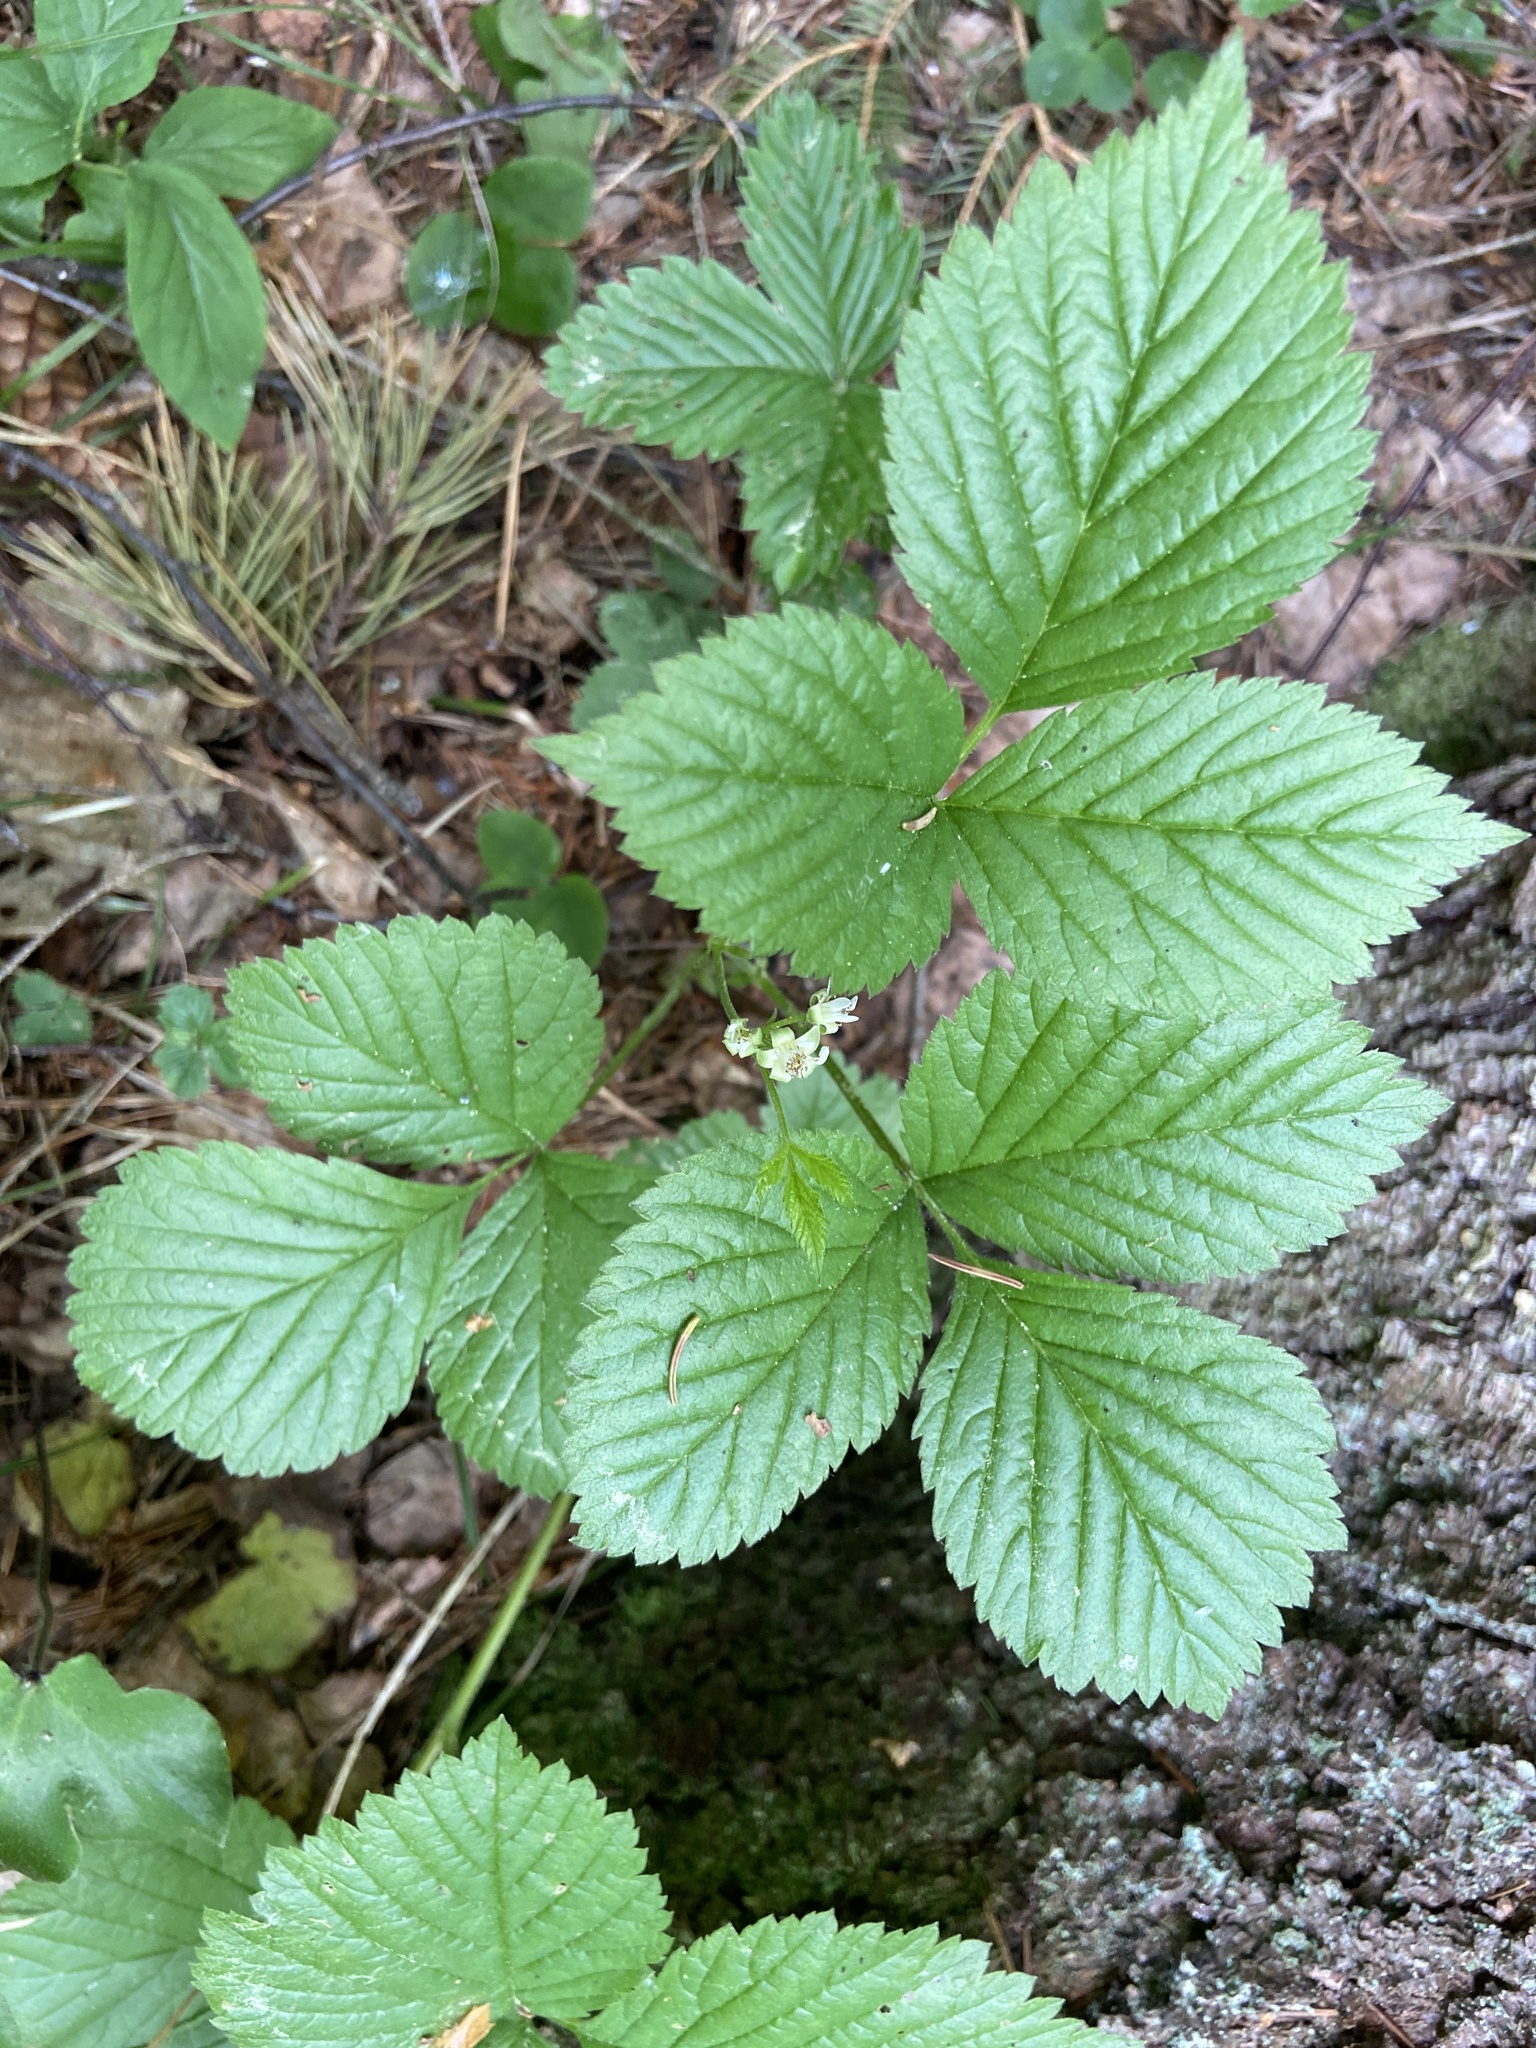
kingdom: Plantae
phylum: Tracheophyta
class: Magnoliopsida
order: Rosales
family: Rosaceae
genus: Rubus
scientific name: Rubus saxatilis
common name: Stone bramble
